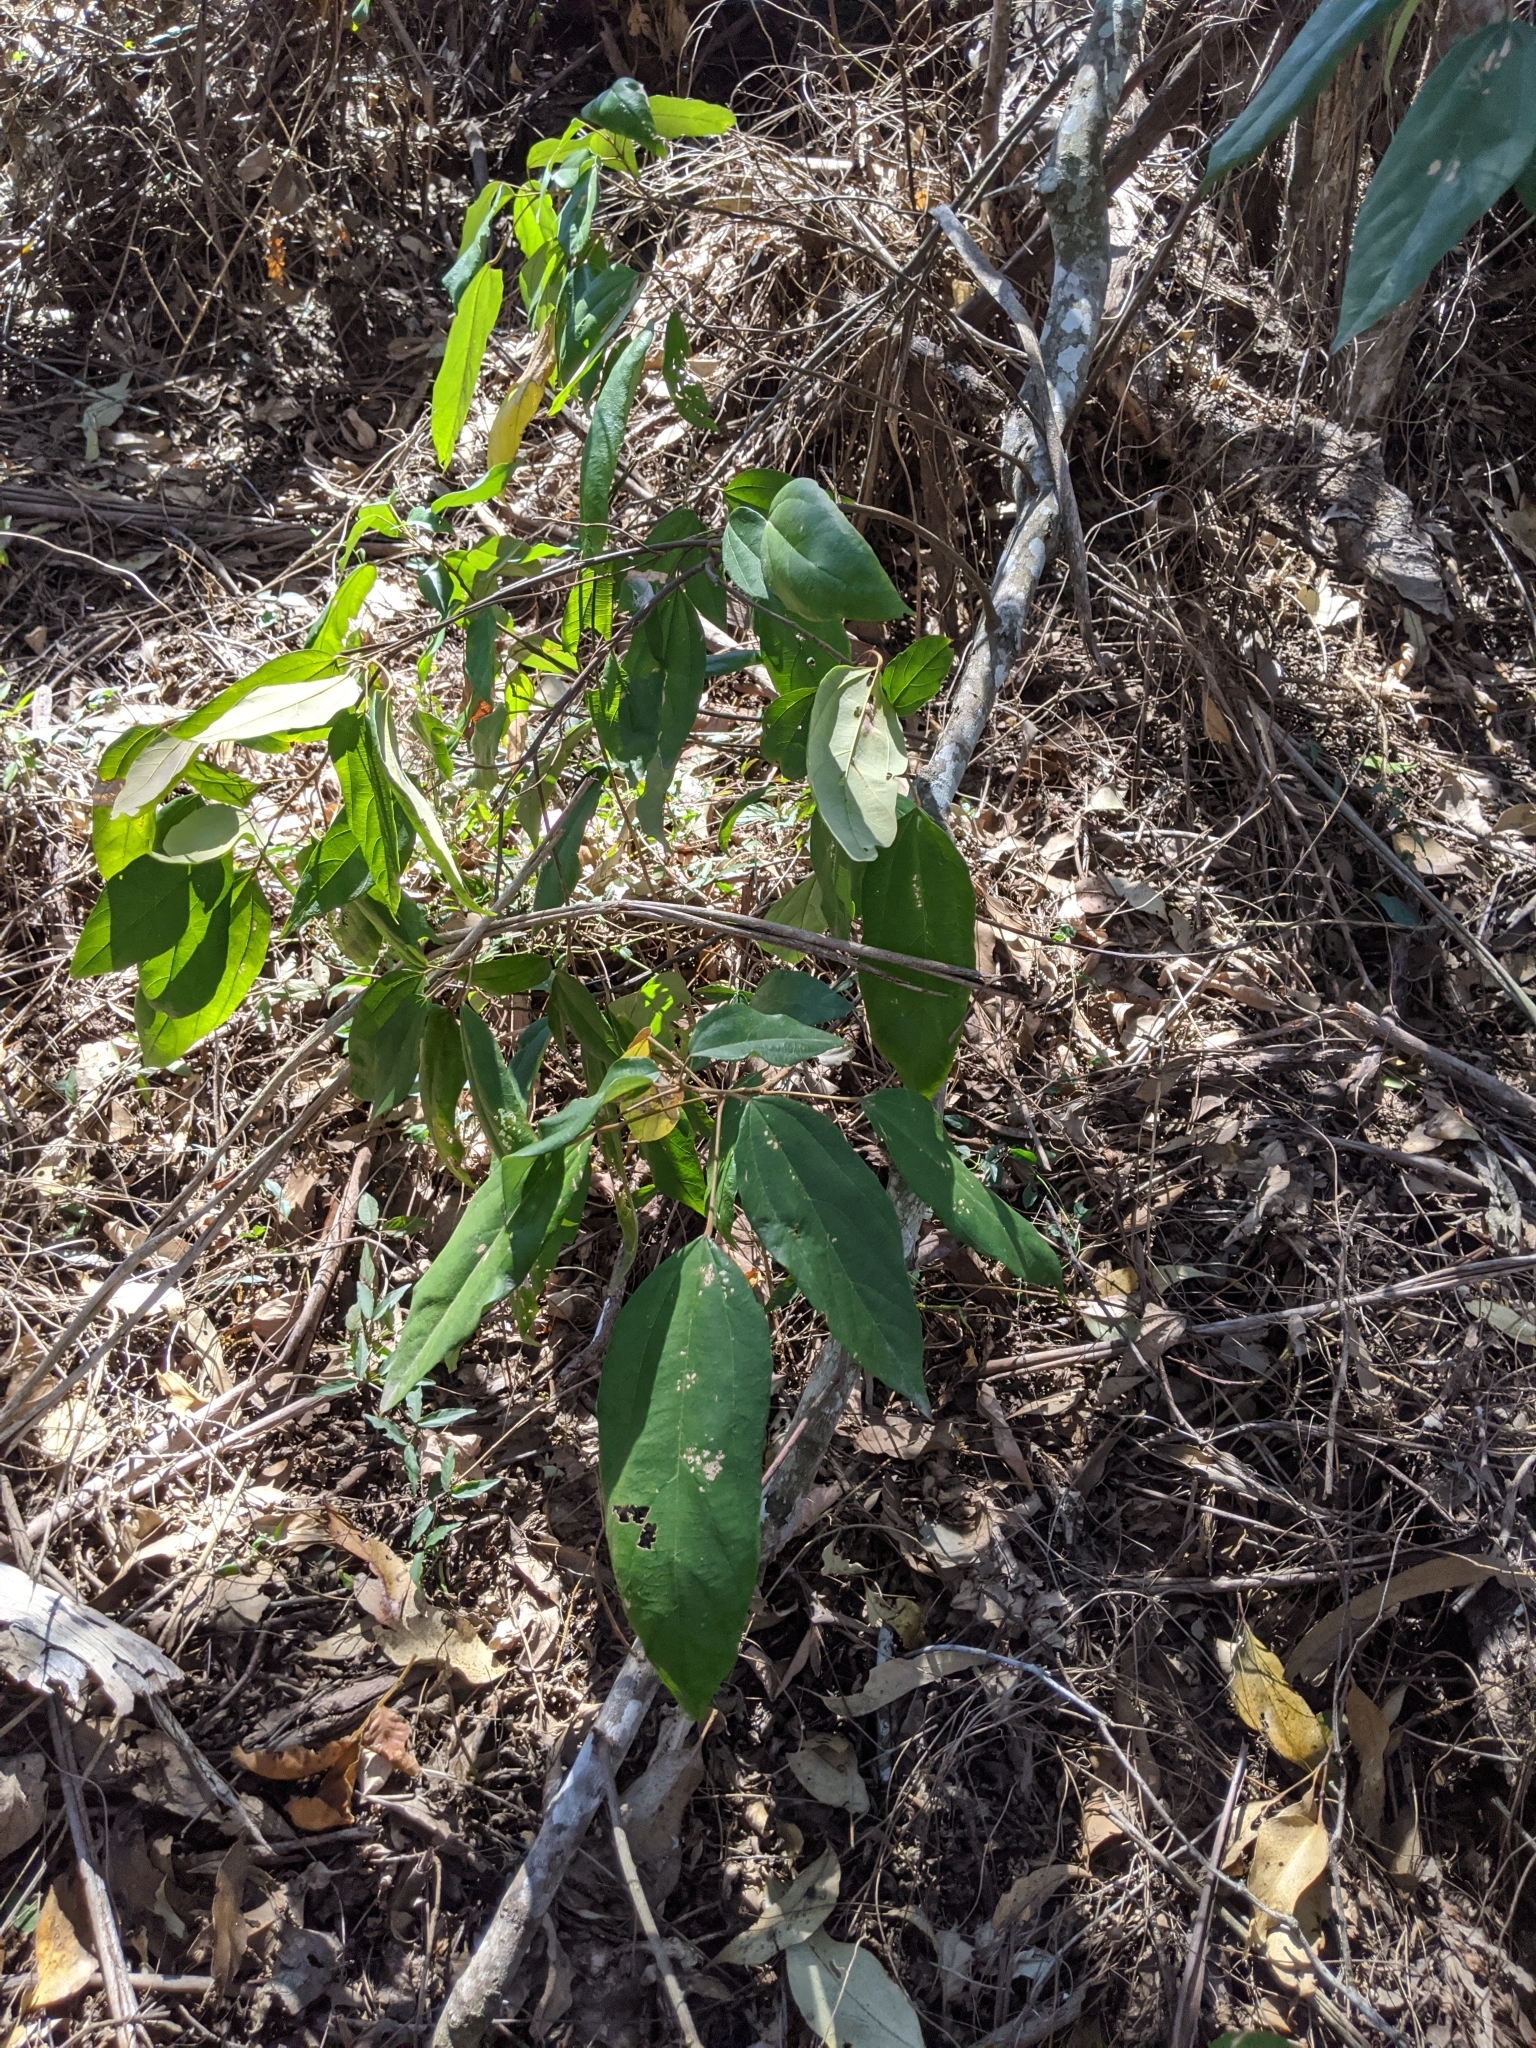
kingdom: Plantae
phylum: Tracheophyta
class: Magnoliopsida
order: Malpighiales
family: Euphorbiaceae
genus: Mallotus
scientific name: Mallotus philippensis
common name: Kamala tree
